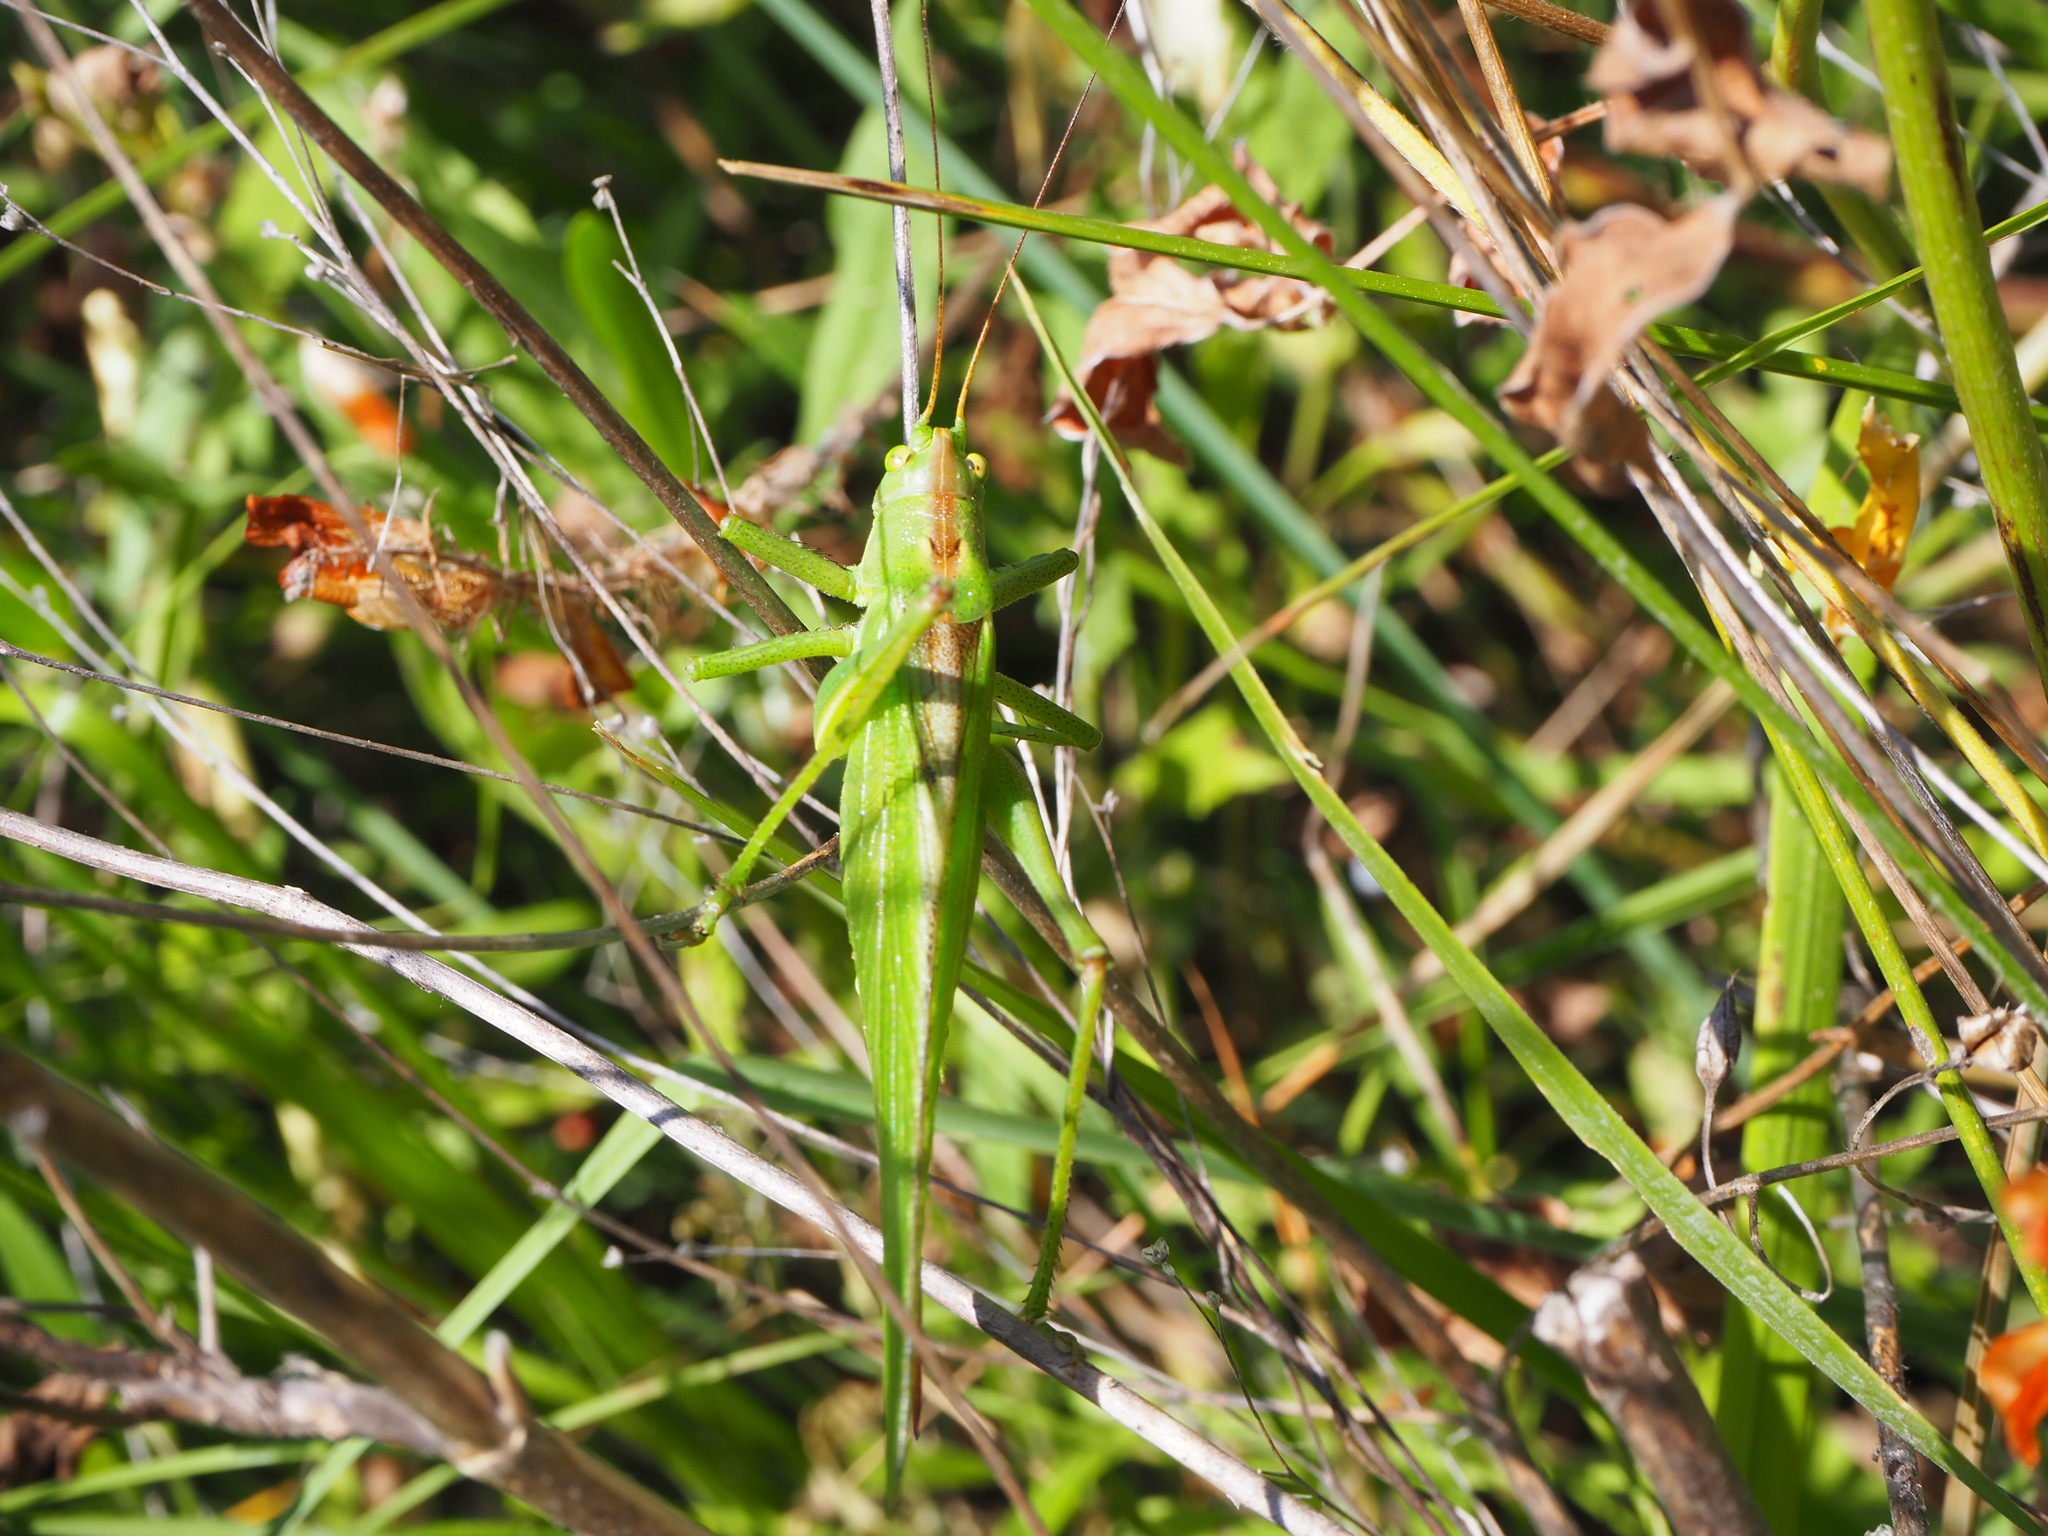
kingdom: Animalia
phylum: Arthropoda
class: Insecta
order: Orthoptera
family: Tettigoniidae
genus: Tettigonia
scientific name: Tettigonia viridissima
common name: Great green bush-cricket
